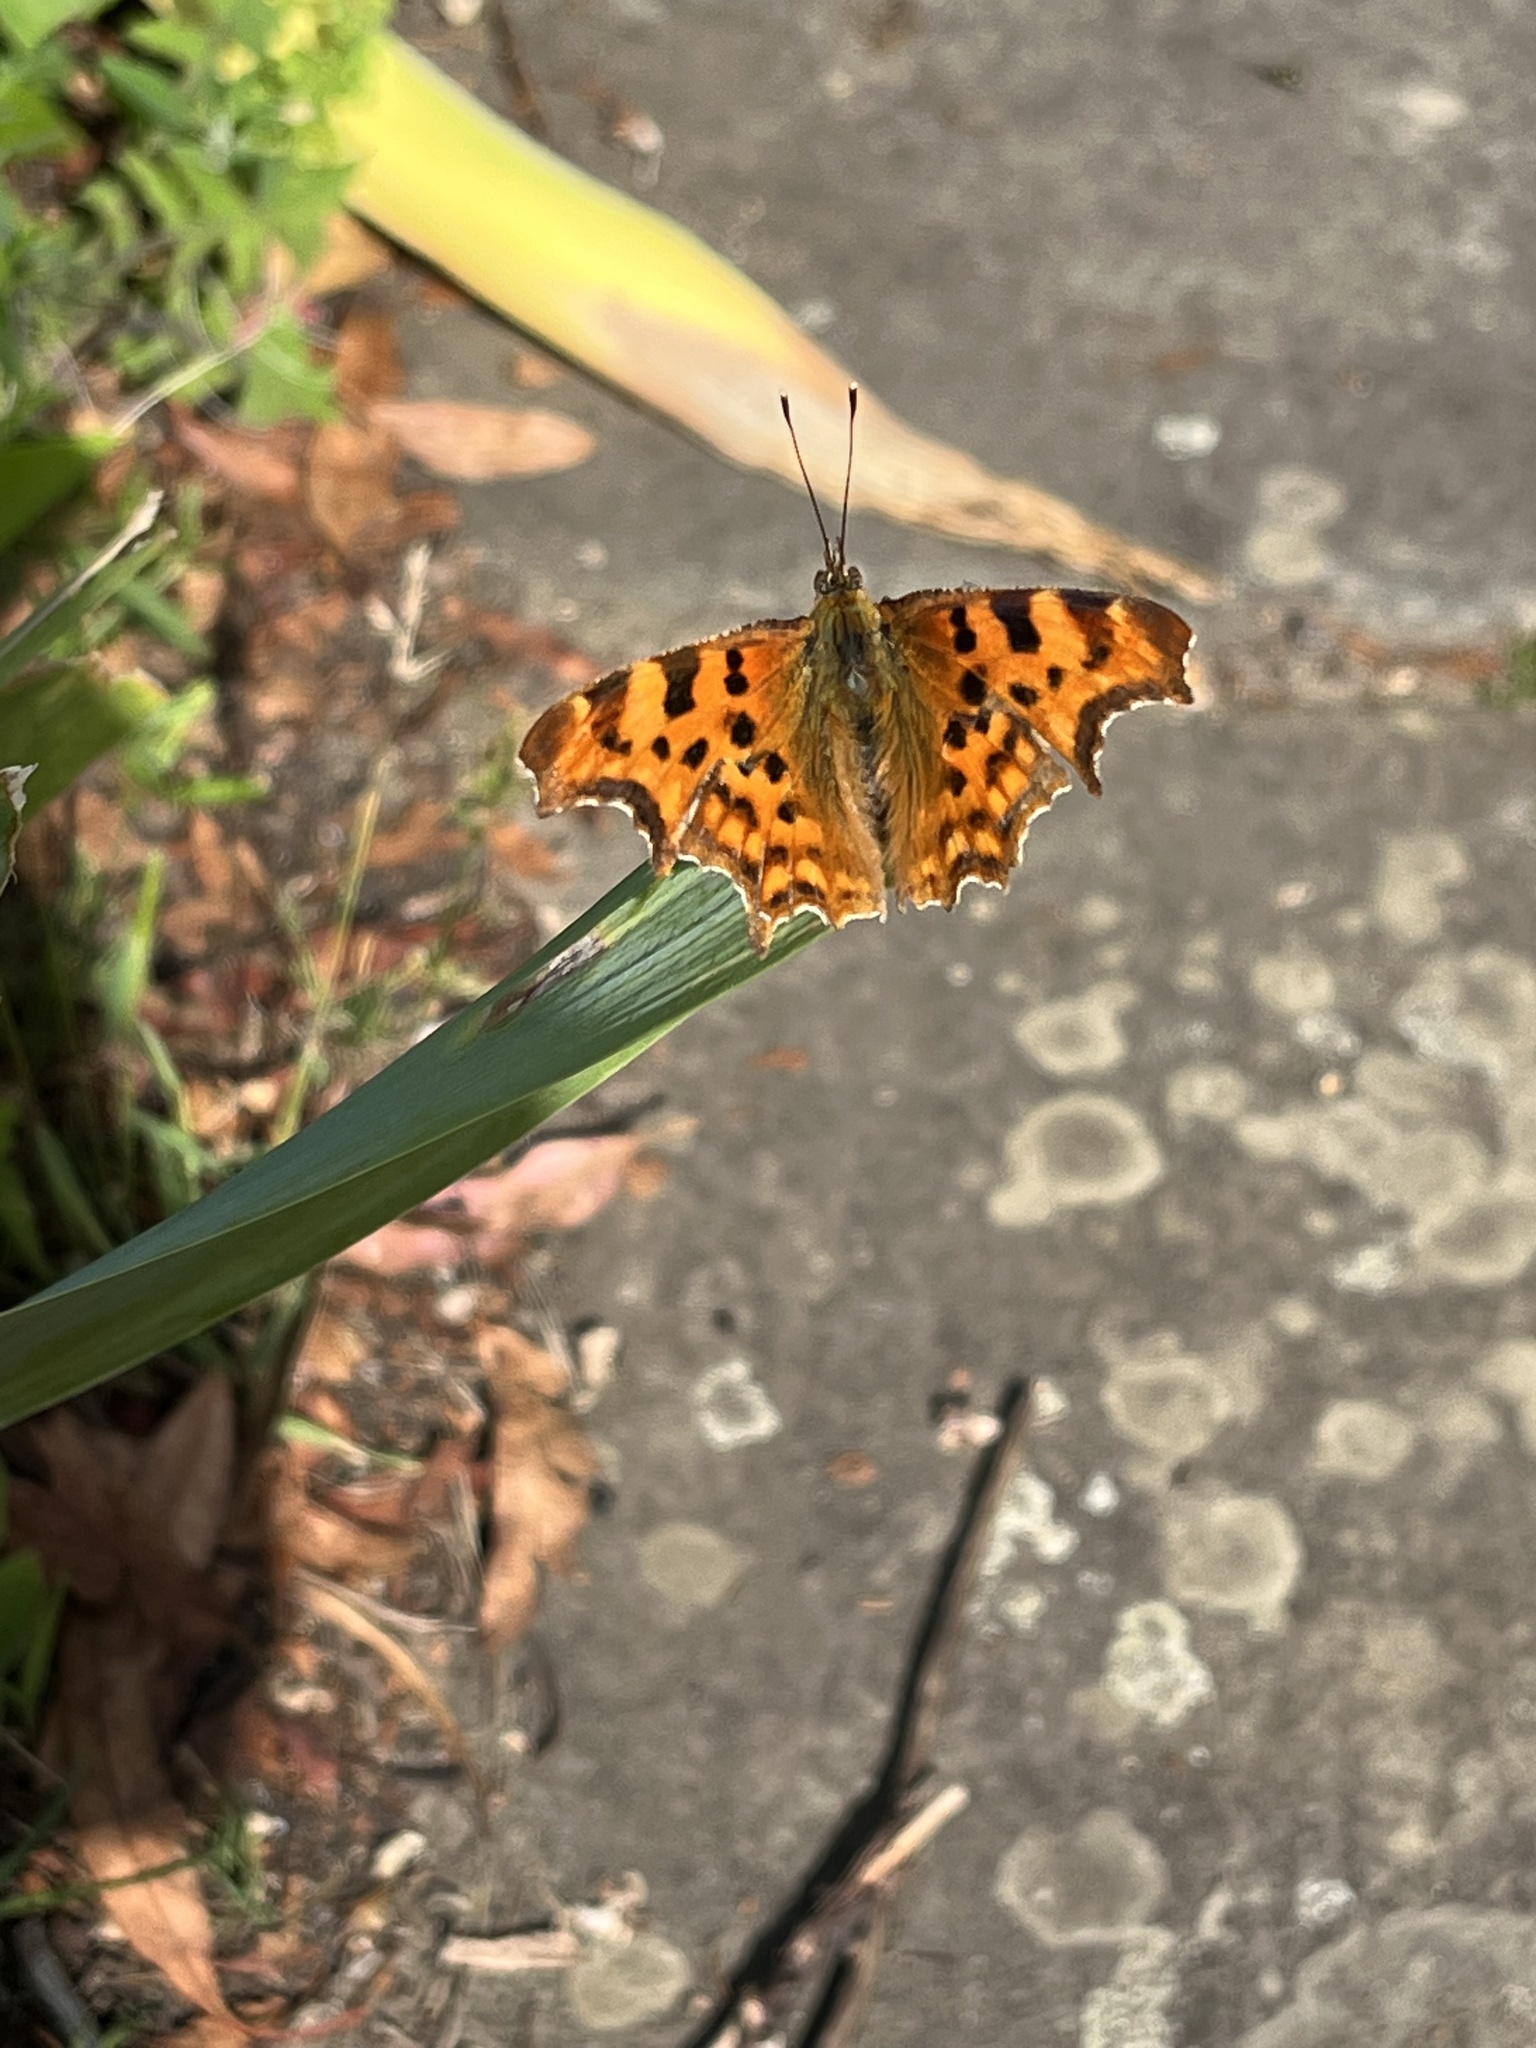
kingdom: Animalia
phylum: Arthropoda
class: Insecta
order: Lepidoptera
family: Nymphalidae
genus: Polygonia
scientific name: Polygonia c-album
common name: Comma
